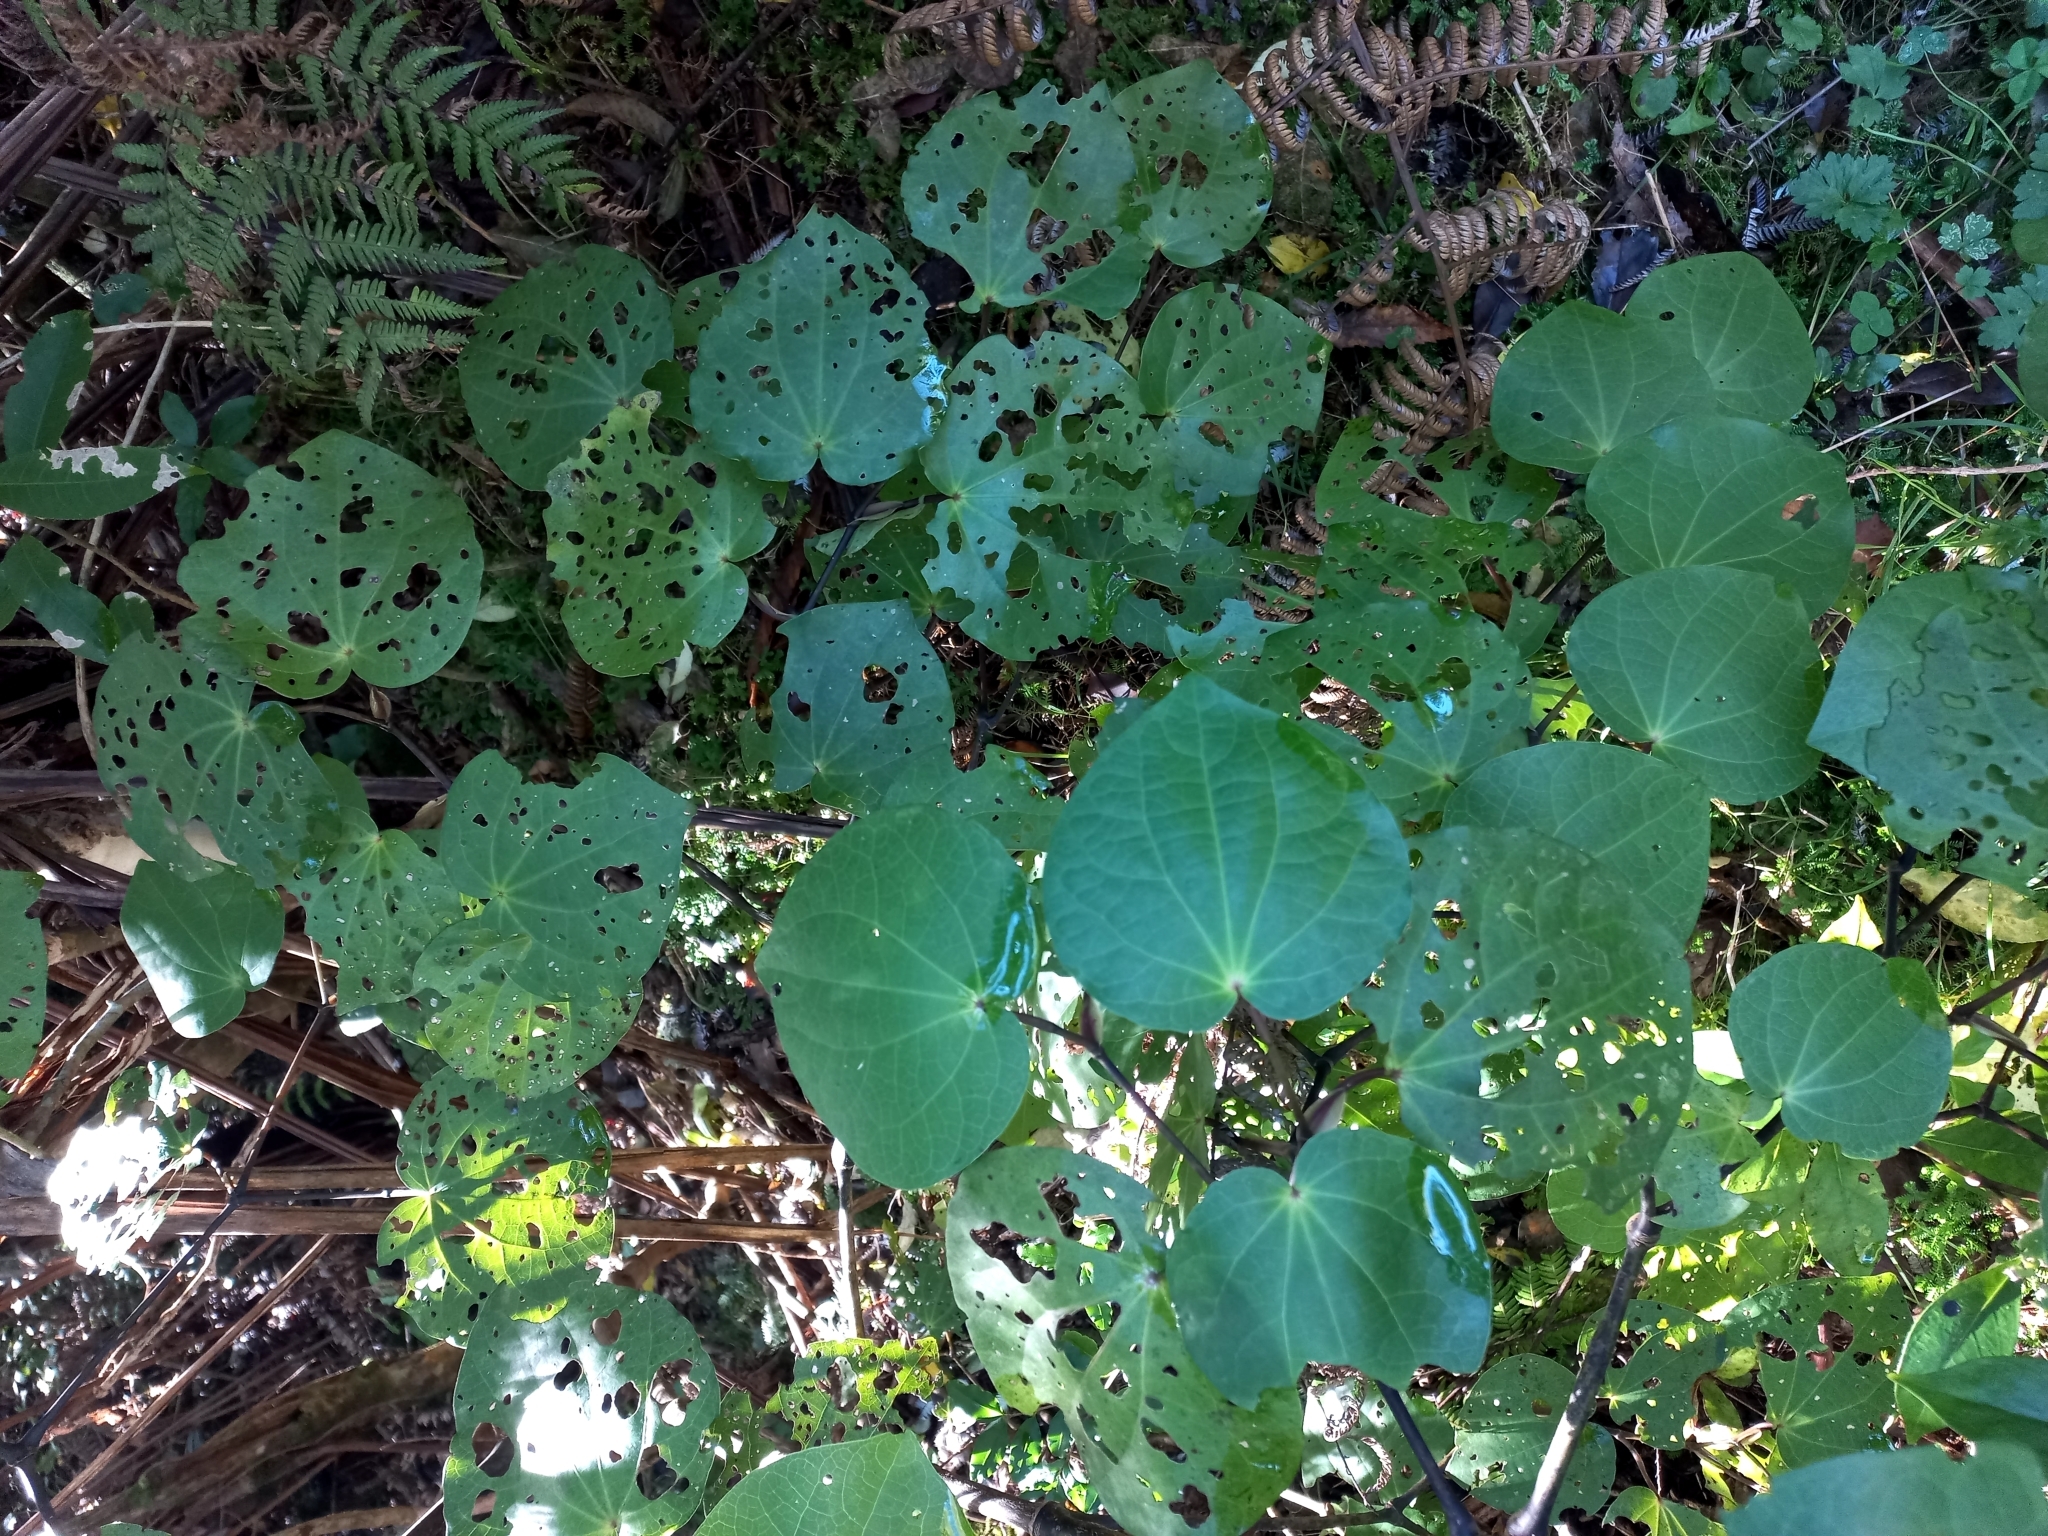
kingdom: Plantae
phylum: Tracheophyta
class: Magnoliopsida
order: Piperales
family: Piperaceae
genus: Macropiper
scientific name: Macropiper excelsum
